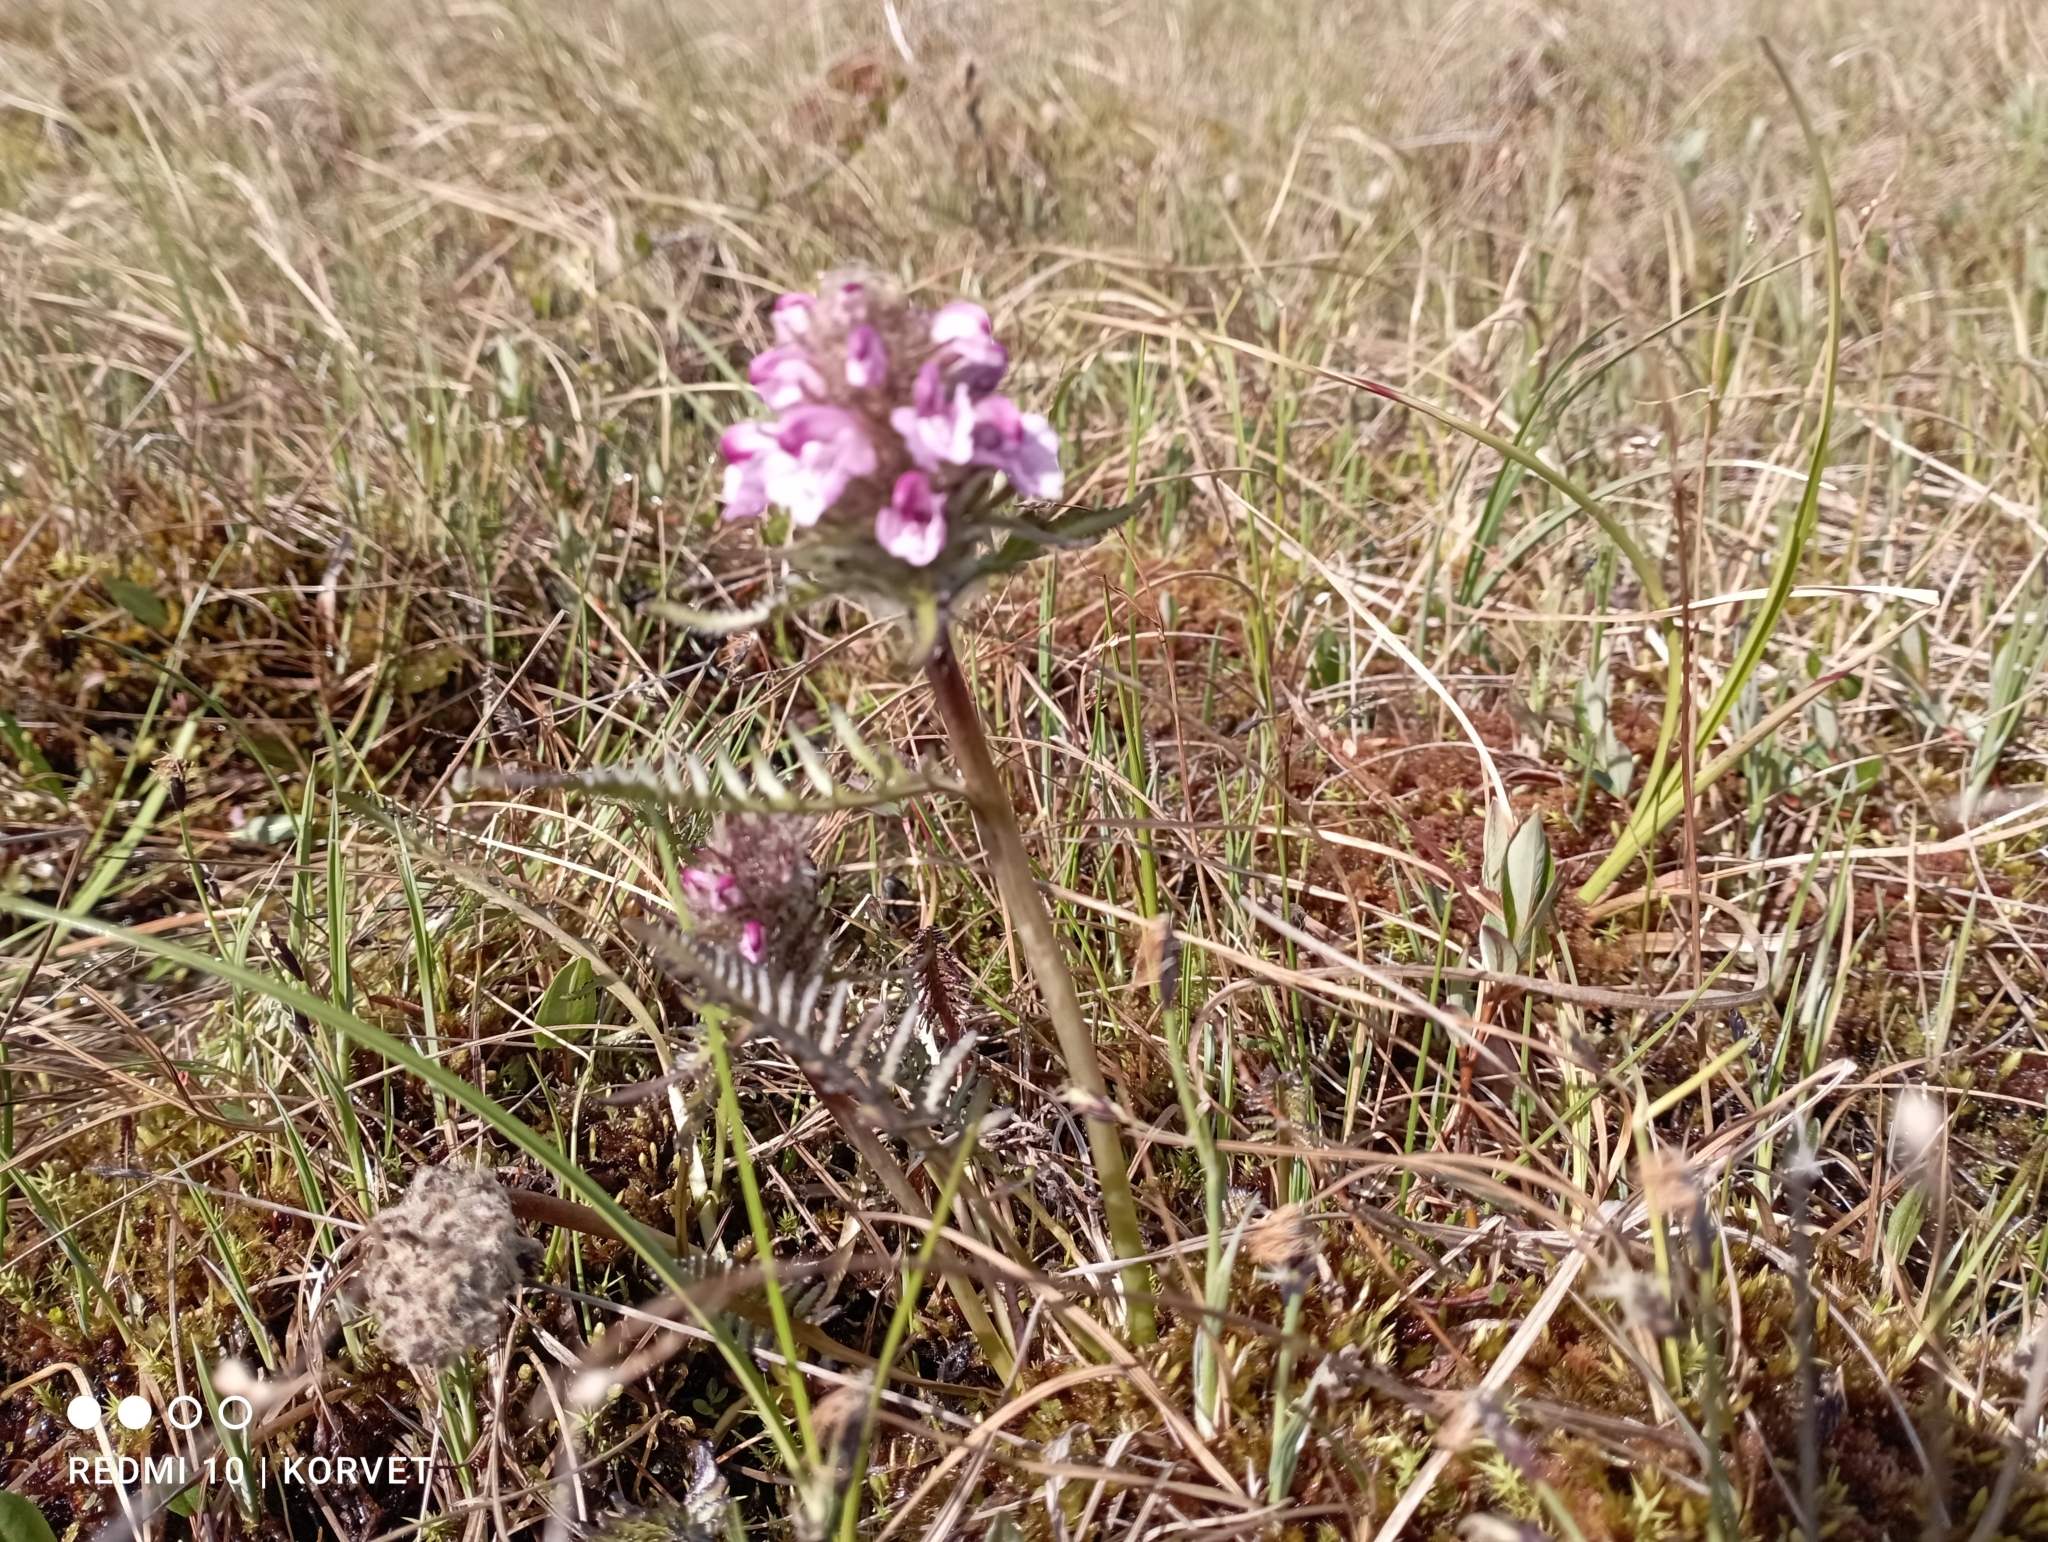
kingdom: Plantae
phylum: Tracheophyta
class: Magnoliopsida
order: Lamiales
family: Orobanchaceae
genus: Pedicularis
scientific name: Pedicularis novaiae-zemliae
